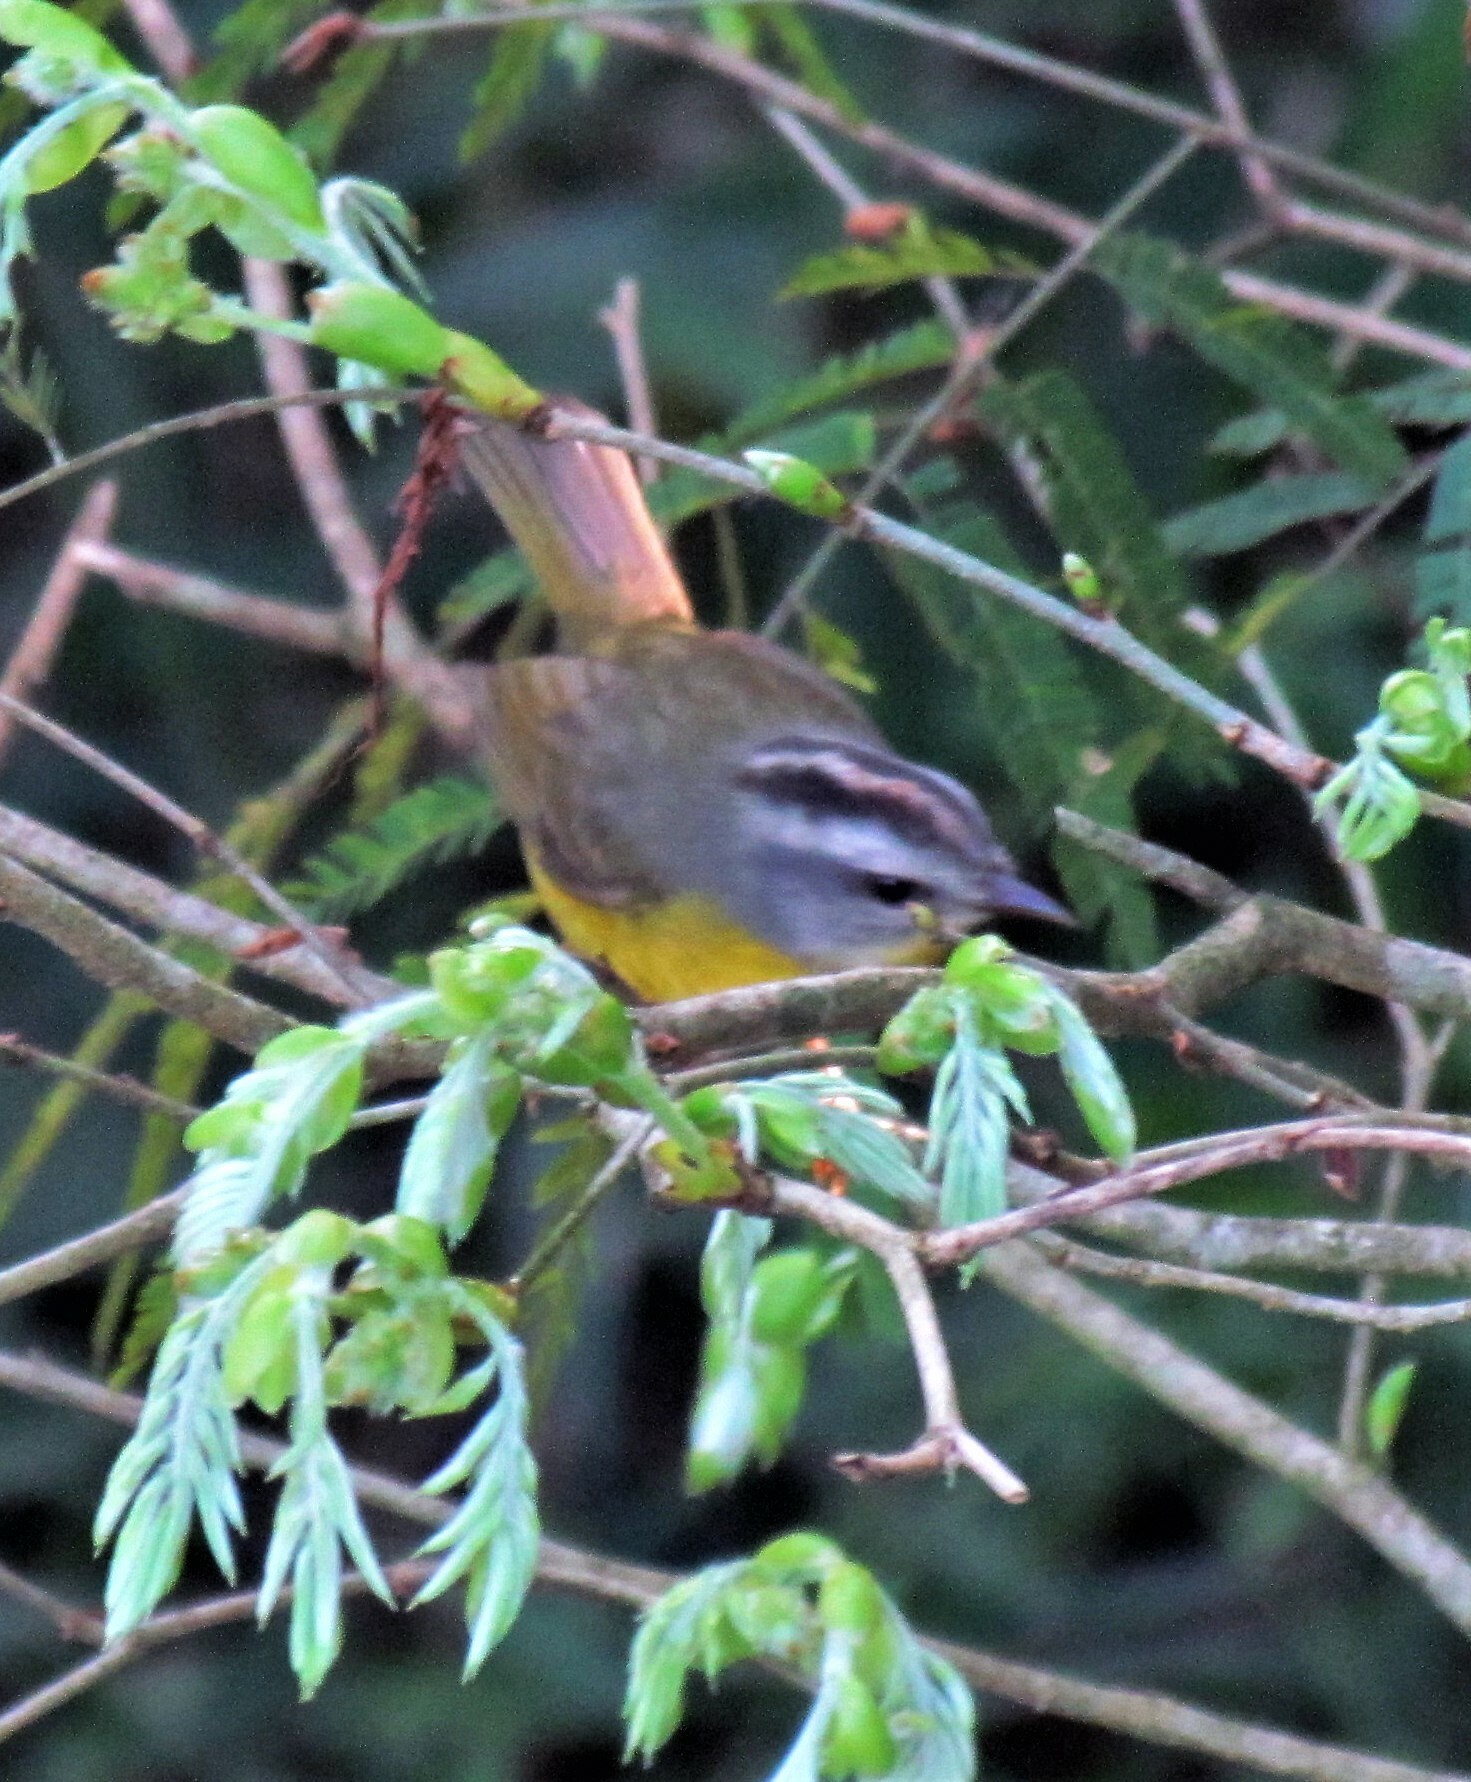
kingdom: Animalia
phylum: Chordata
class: Aves
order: Passeriformes
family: Parulidae
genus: Basileuterus
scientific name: Basileuterus culicivorus
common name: Golden-crowned warbler
